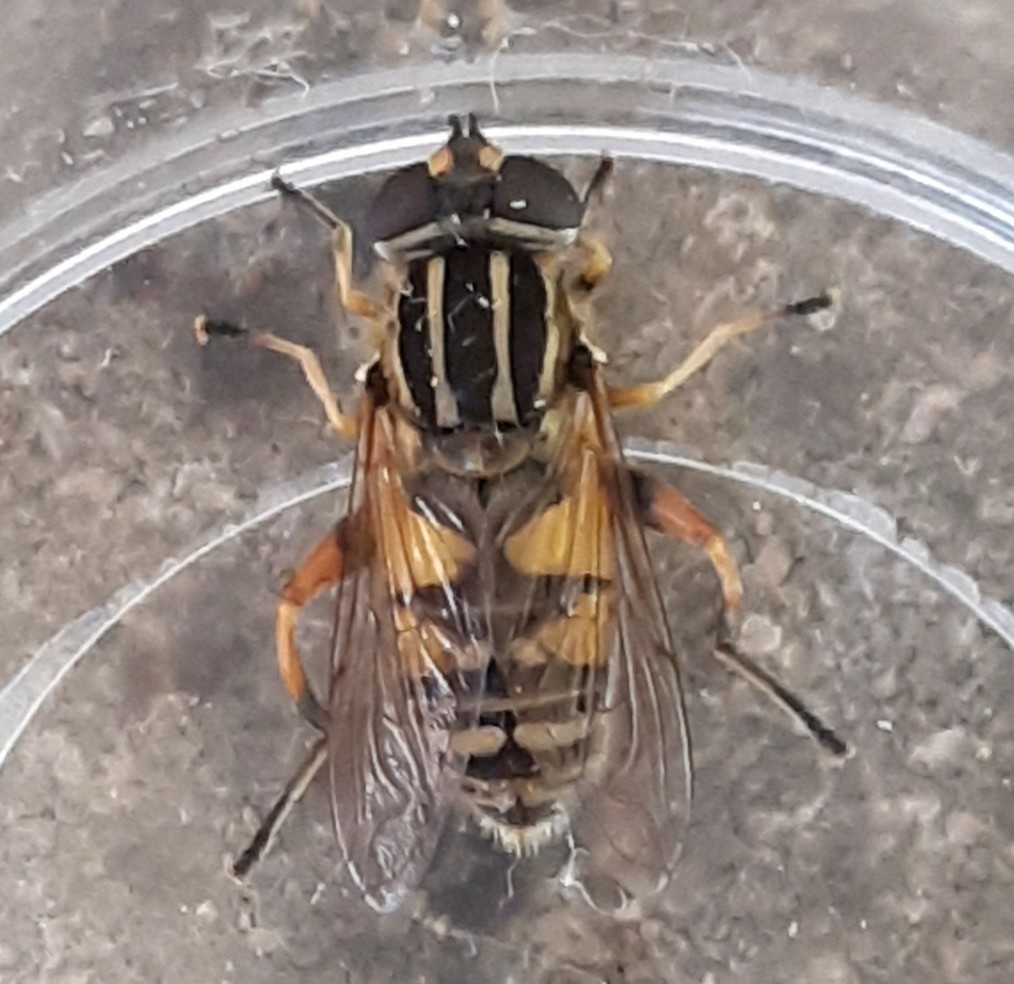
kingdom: Animalia
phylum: Arthropoda
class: Insecta
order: Diptera
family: Syrphidae
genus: Helophilus
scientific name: Helophilus pendulus
